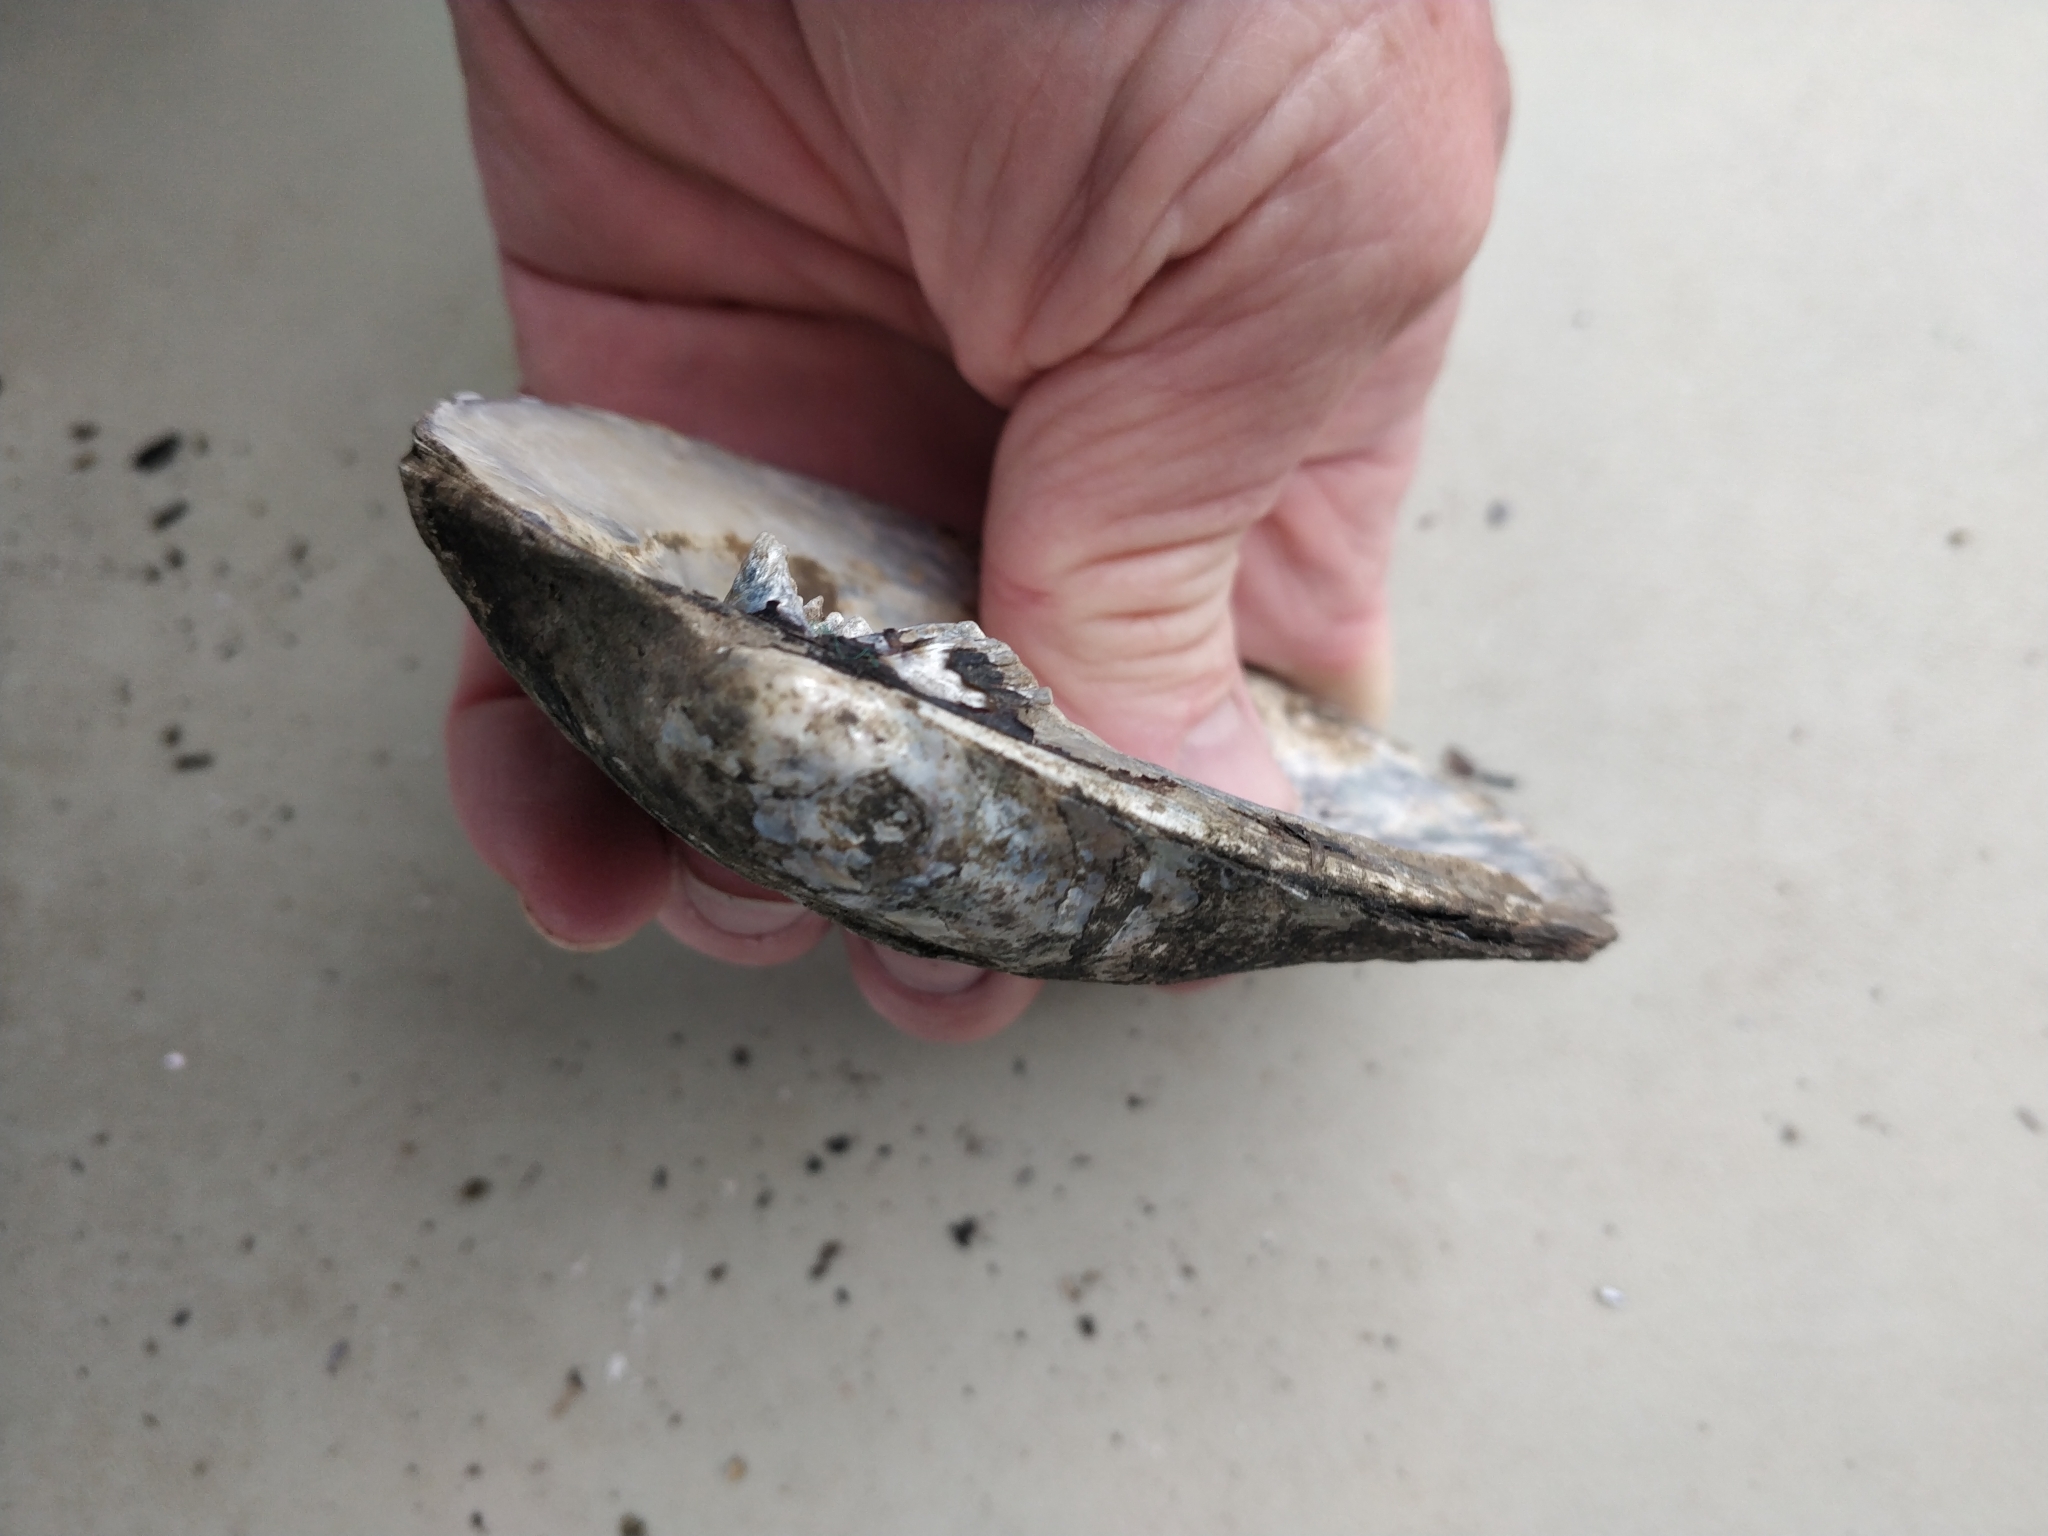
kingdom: Animalia
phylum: Mollusca
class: Bivalvia
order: Unionida
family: Unionidae
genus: Amblema
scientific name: Amblema plicata
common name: Threeridge
